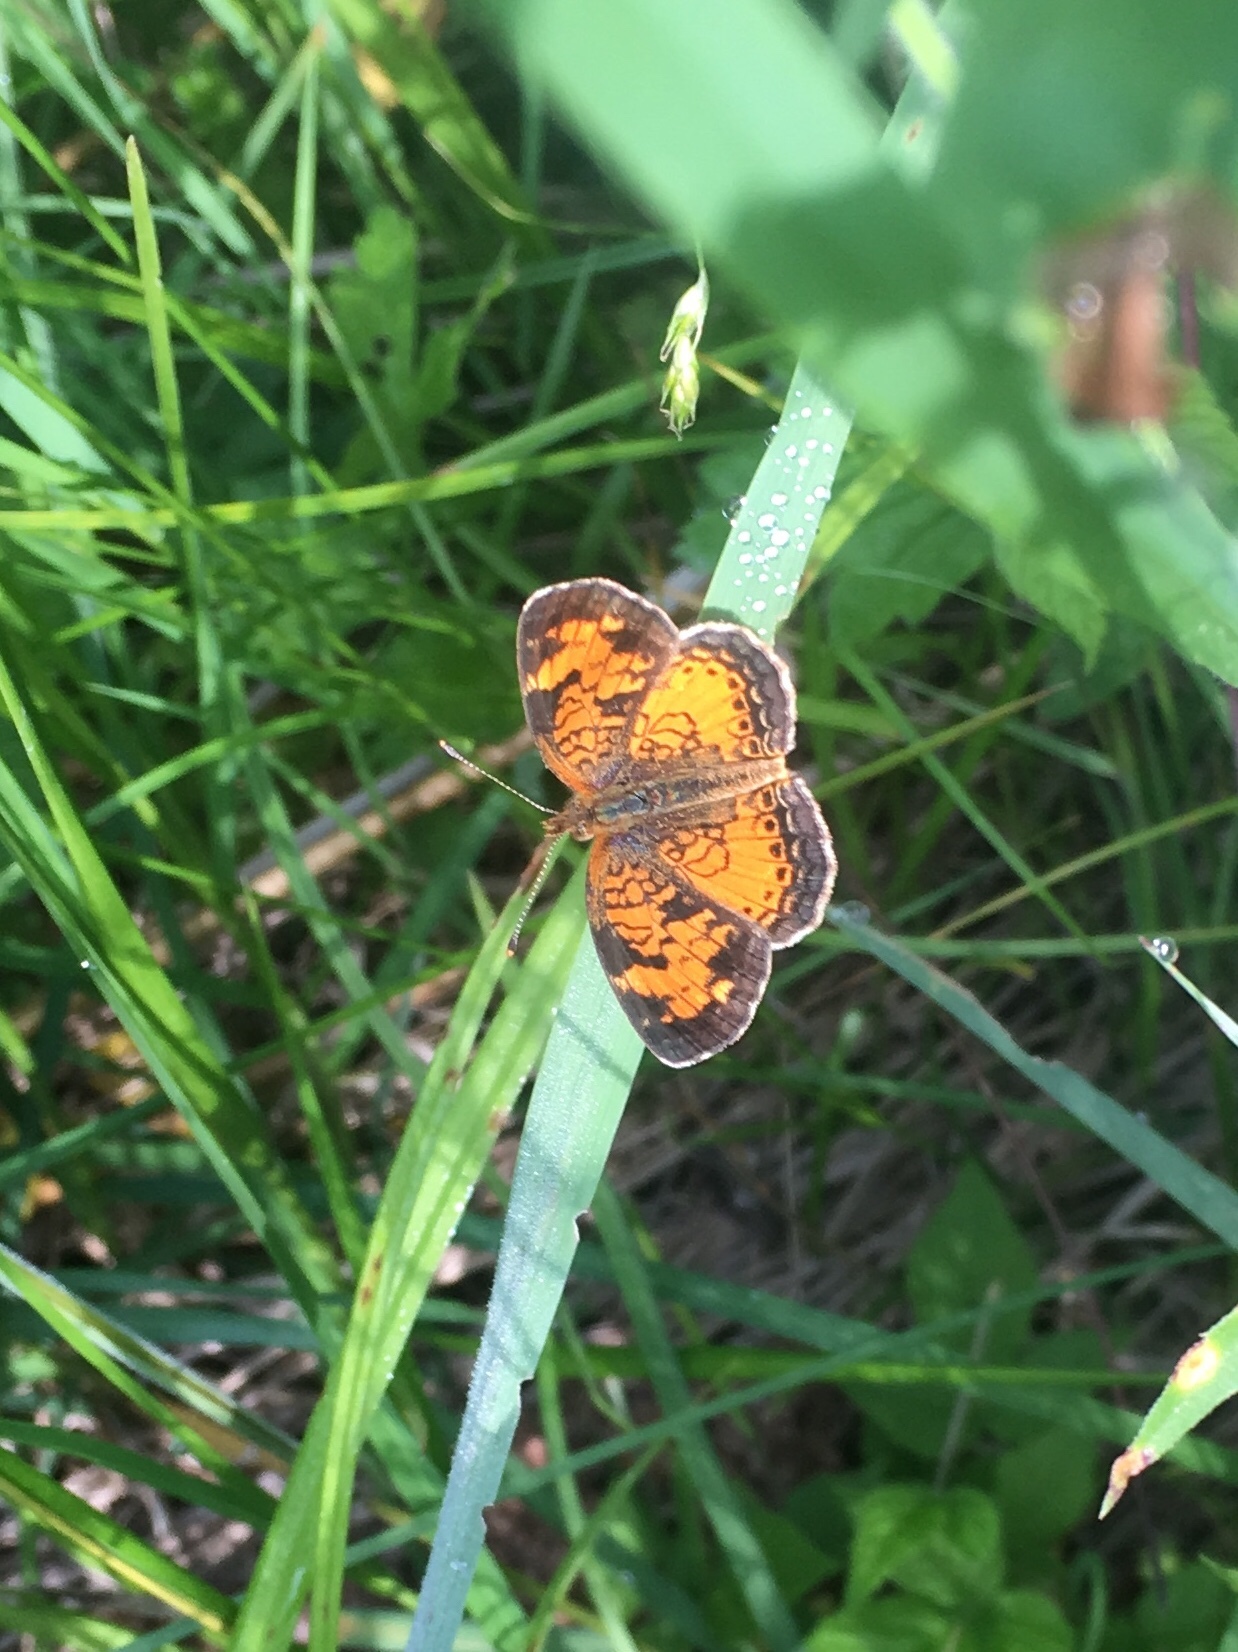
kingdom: Animalia
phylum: Arthropoda
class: Insecta
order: Lepidoptera
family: Nymphalidae
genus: Phyciodes
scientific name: Phyciodes tharos
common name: Pearl crescent
